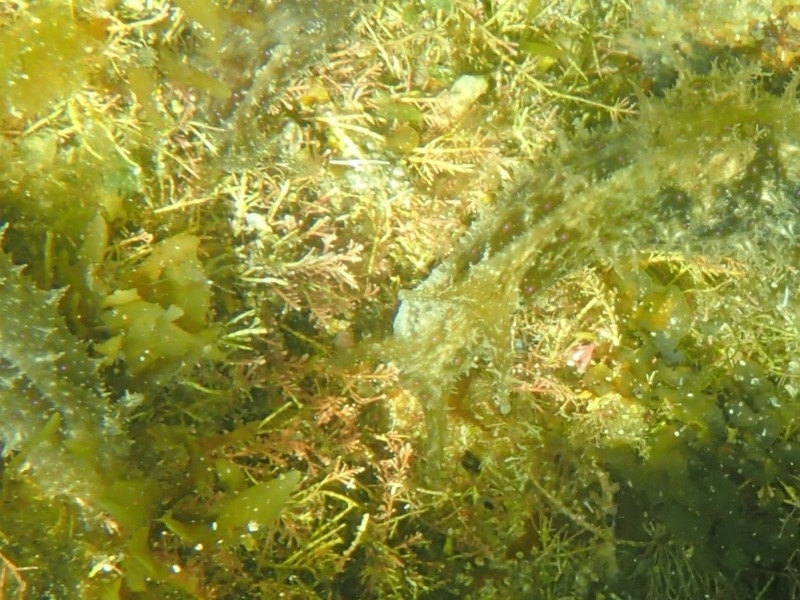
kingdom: Animalia
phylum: Mollusca
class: Gastropoda
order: Aplysiida
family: Aplysiidae
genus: Stylocheilus
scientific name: Stylocheilus striatus
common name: Striated seahare
